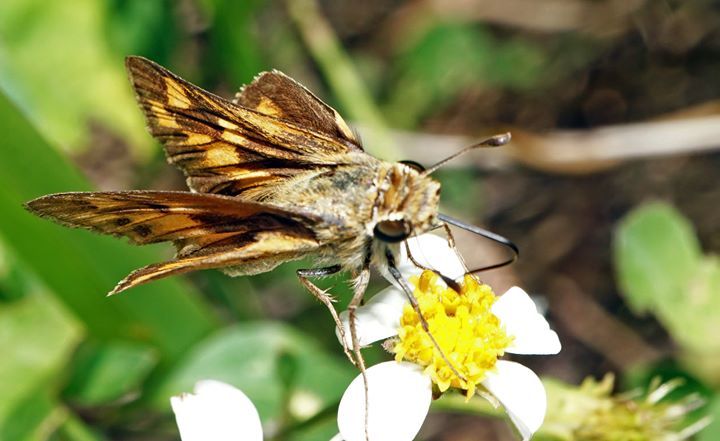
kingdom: Animalia
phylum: Arthropoda
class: Insecta
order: Lepidoptera
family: Hesperiidae
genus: Hylephila
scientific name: Hylephila phyleus
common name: Fiery skipper
